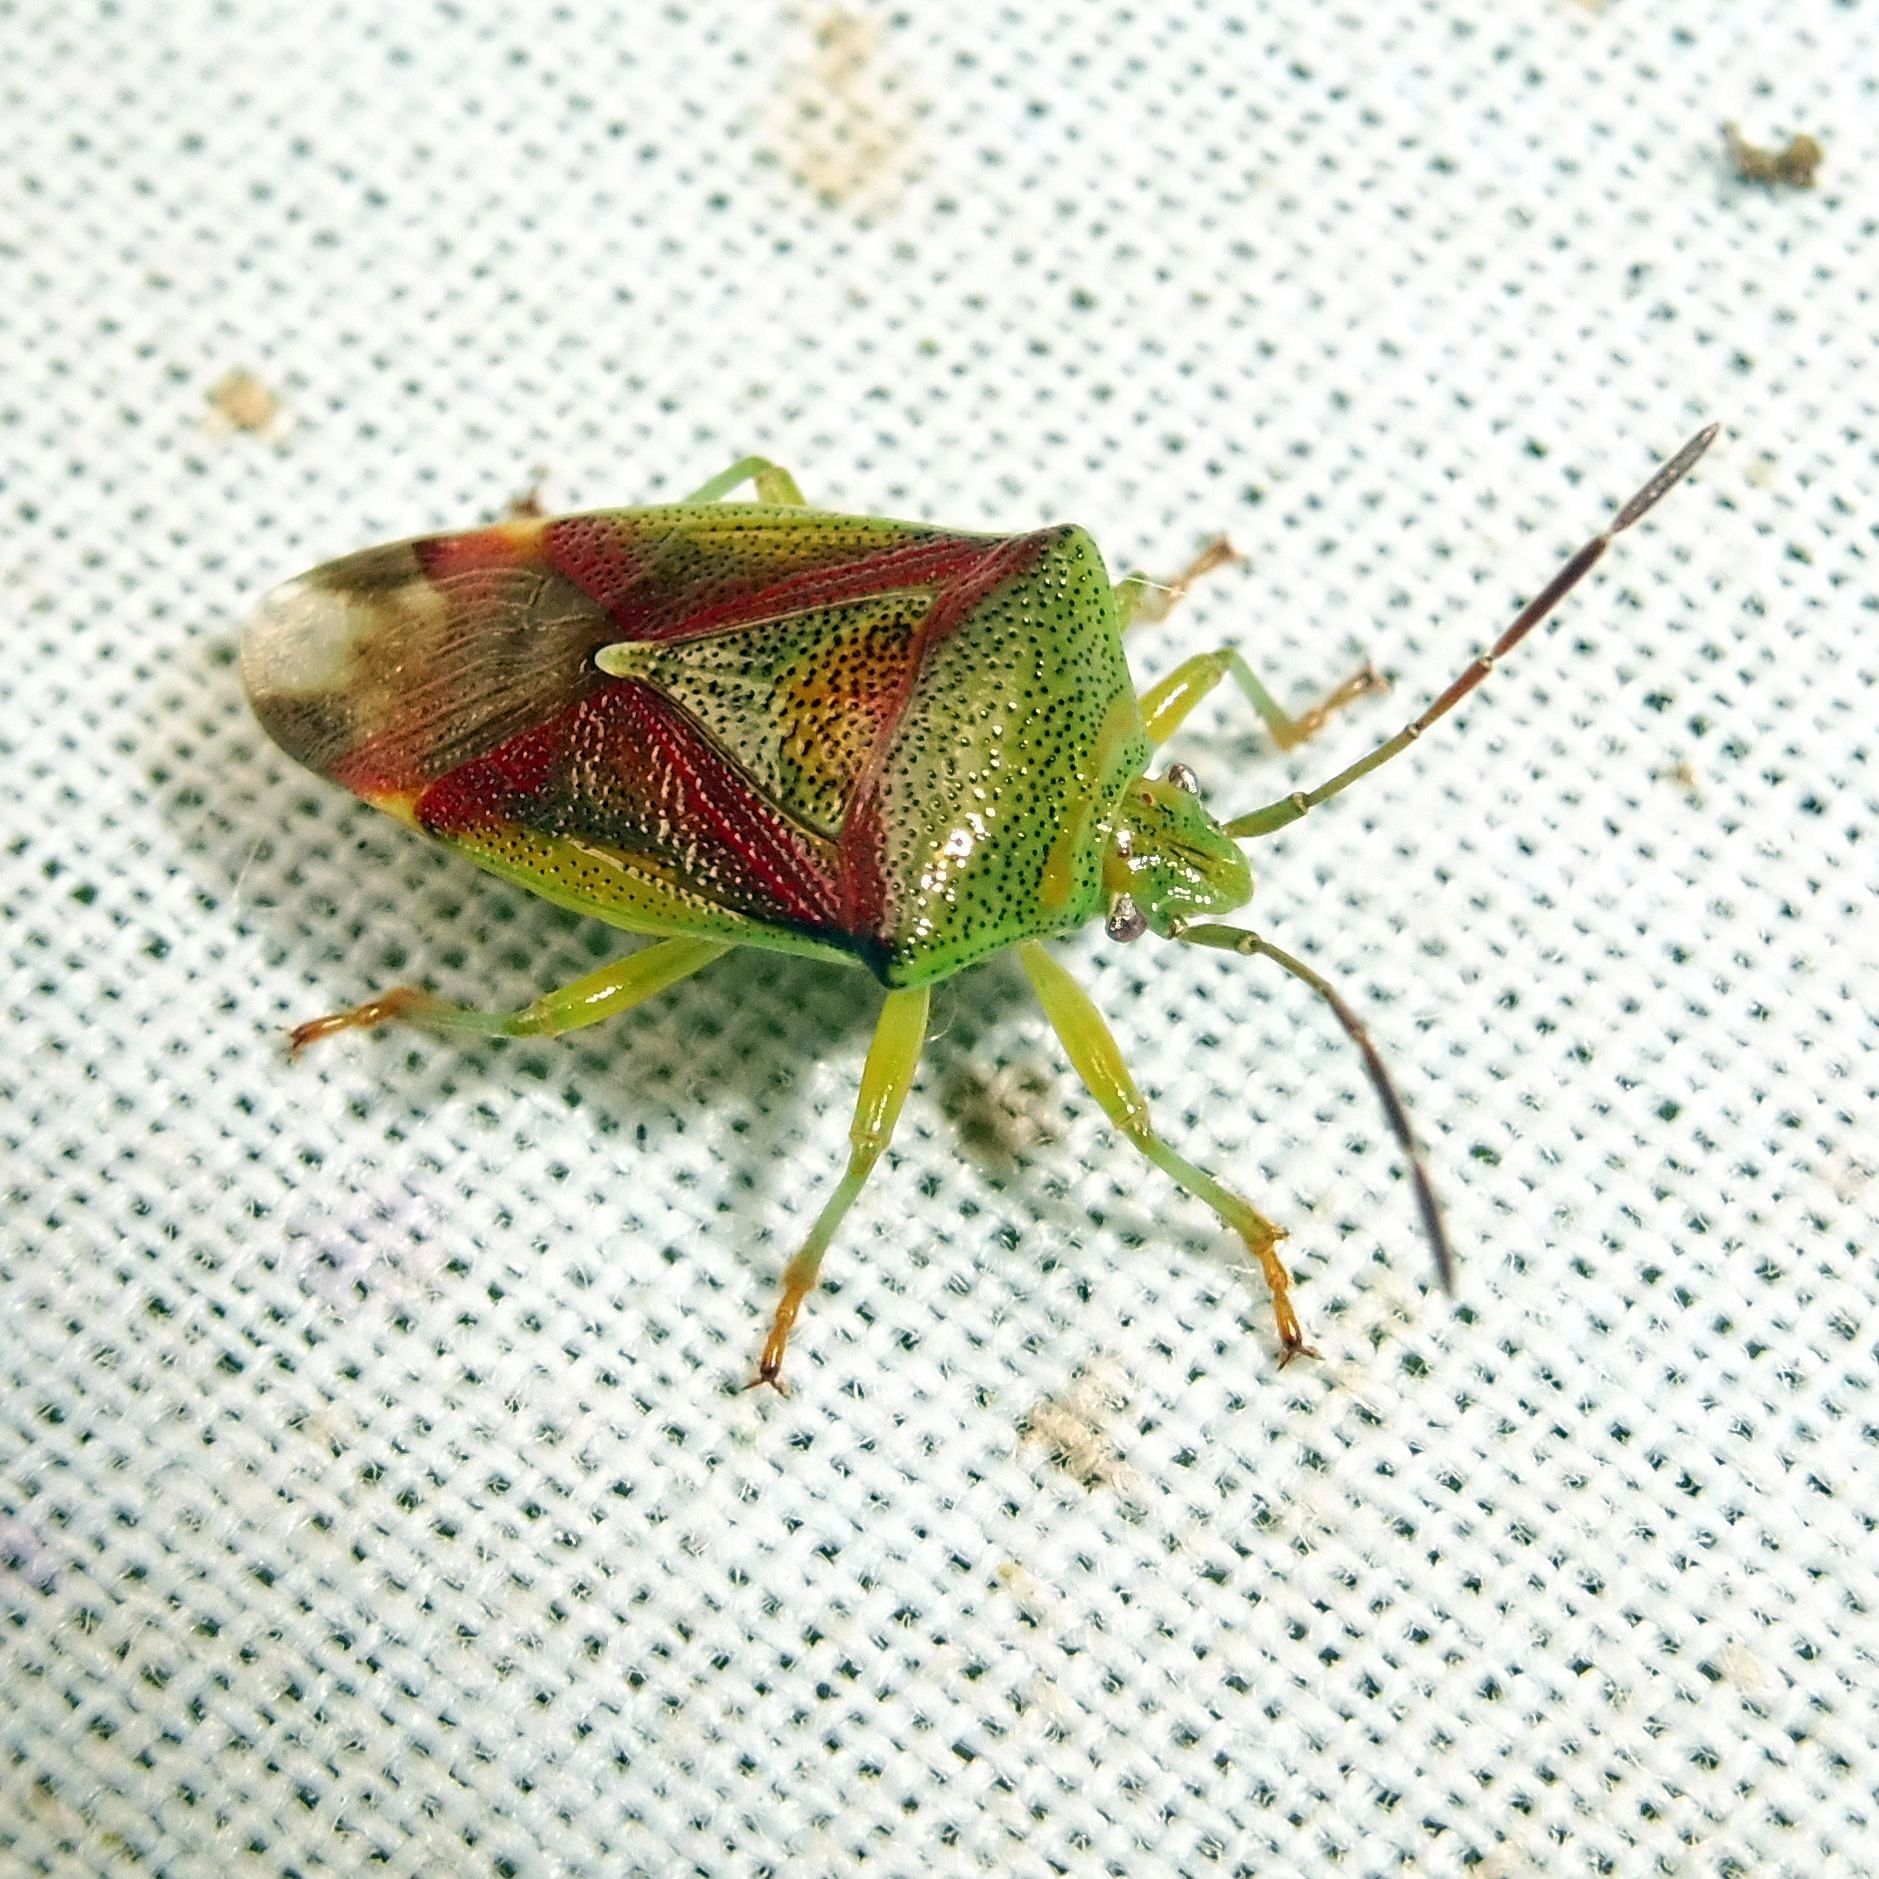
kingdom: Animalia
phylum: Arthropoda
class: Insecta
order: Hemiptera
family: Acanthosomatidae
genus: Elasmostethus
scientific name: Elasmostethus interstinctus
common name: Birch shieldbug
